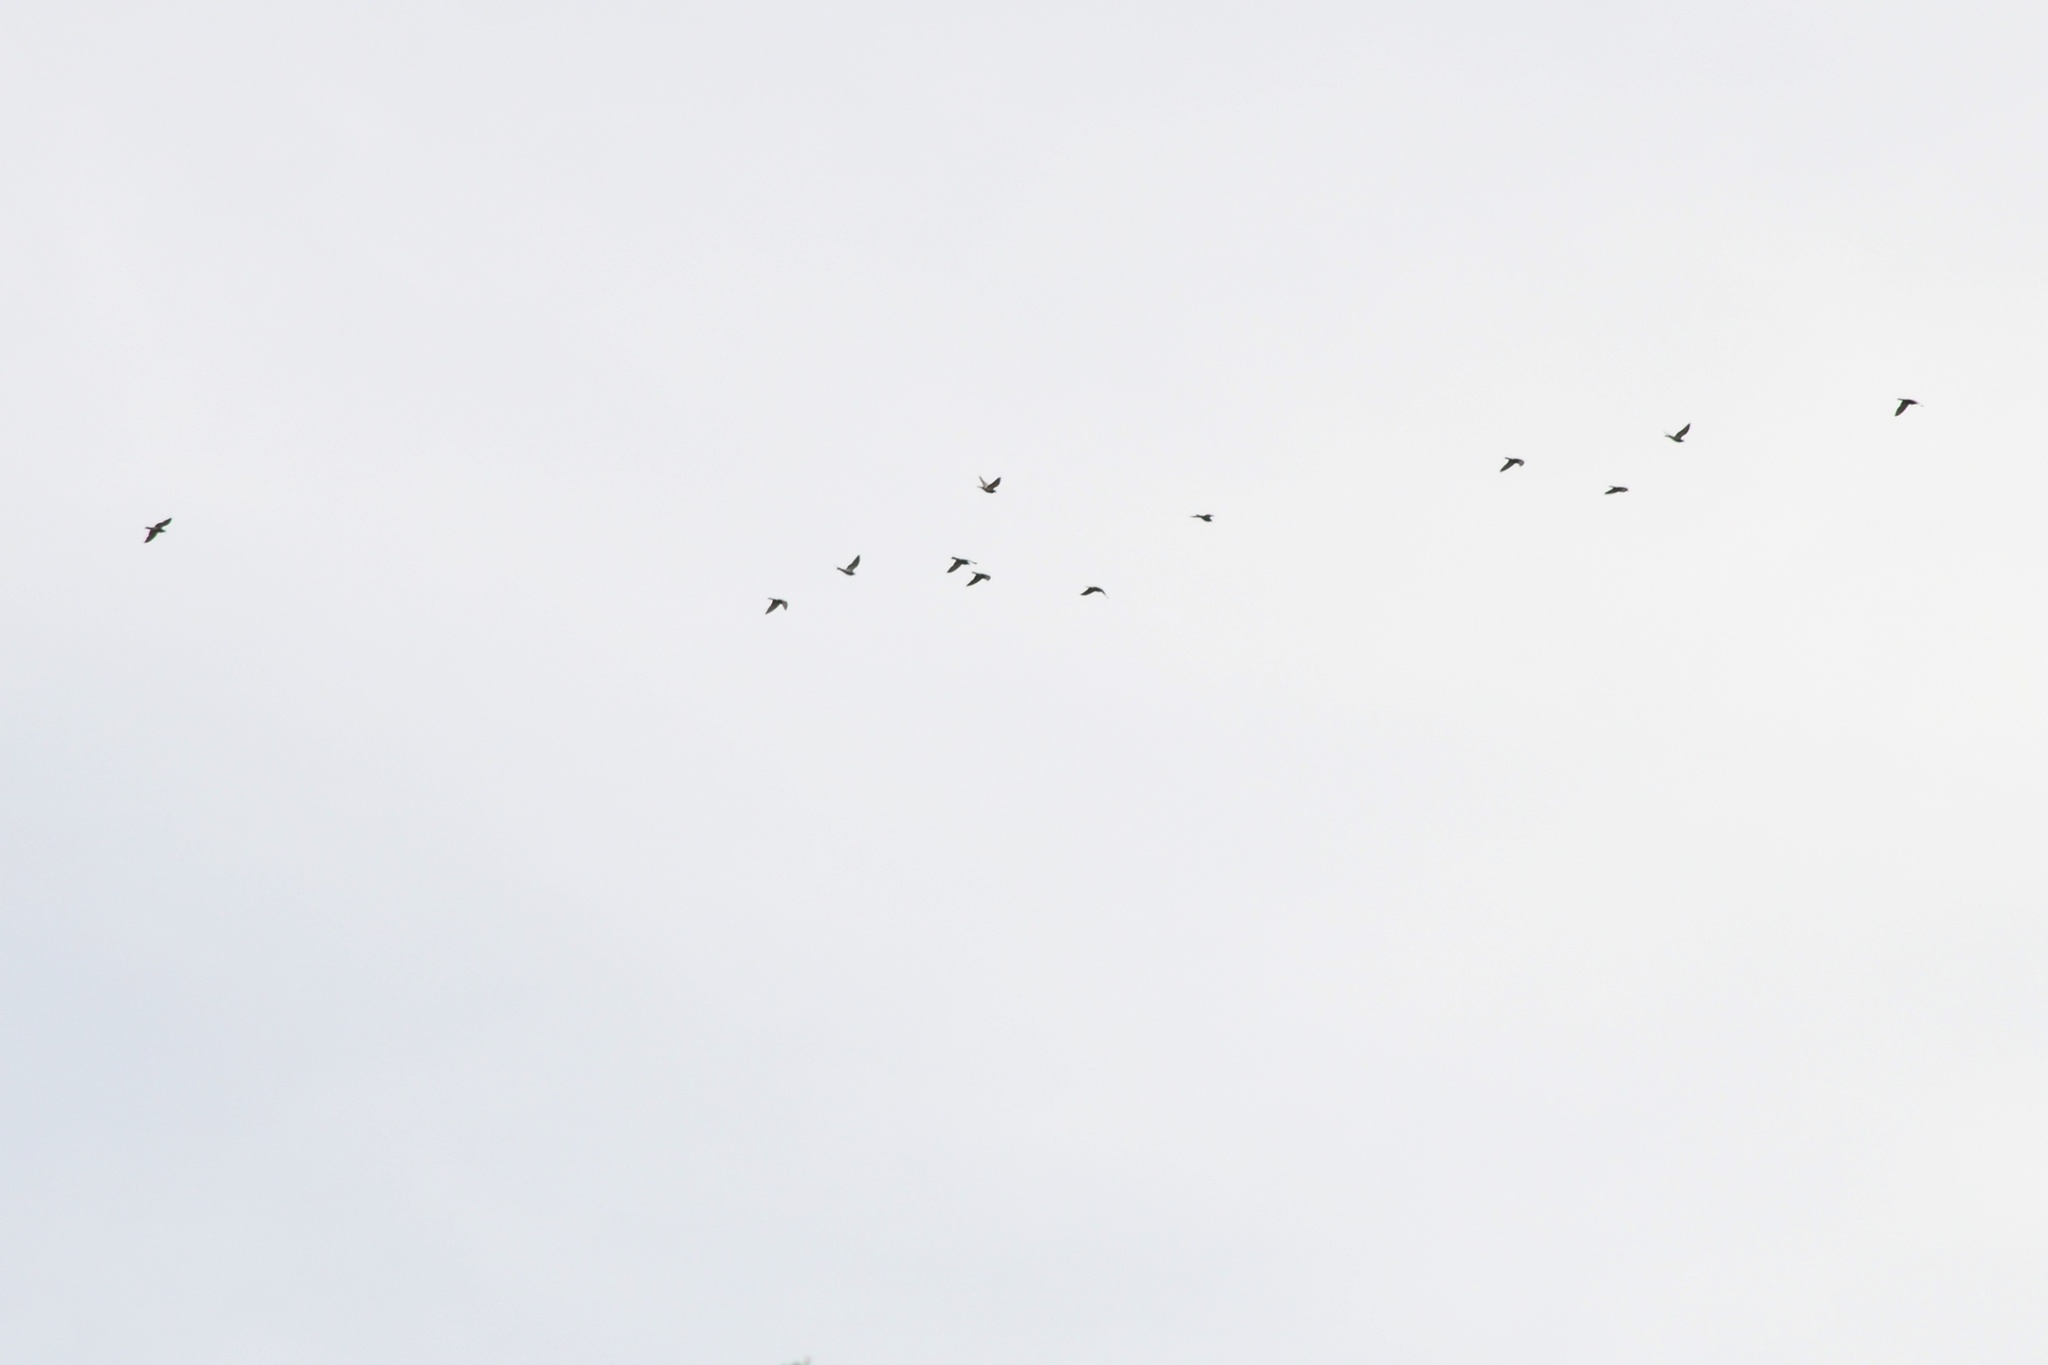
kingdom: Animalia
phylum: Chordata
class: Aves
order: Columbiformes
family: Columbidae
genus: Columba
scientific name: Columba livia
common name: Rock pigeon
